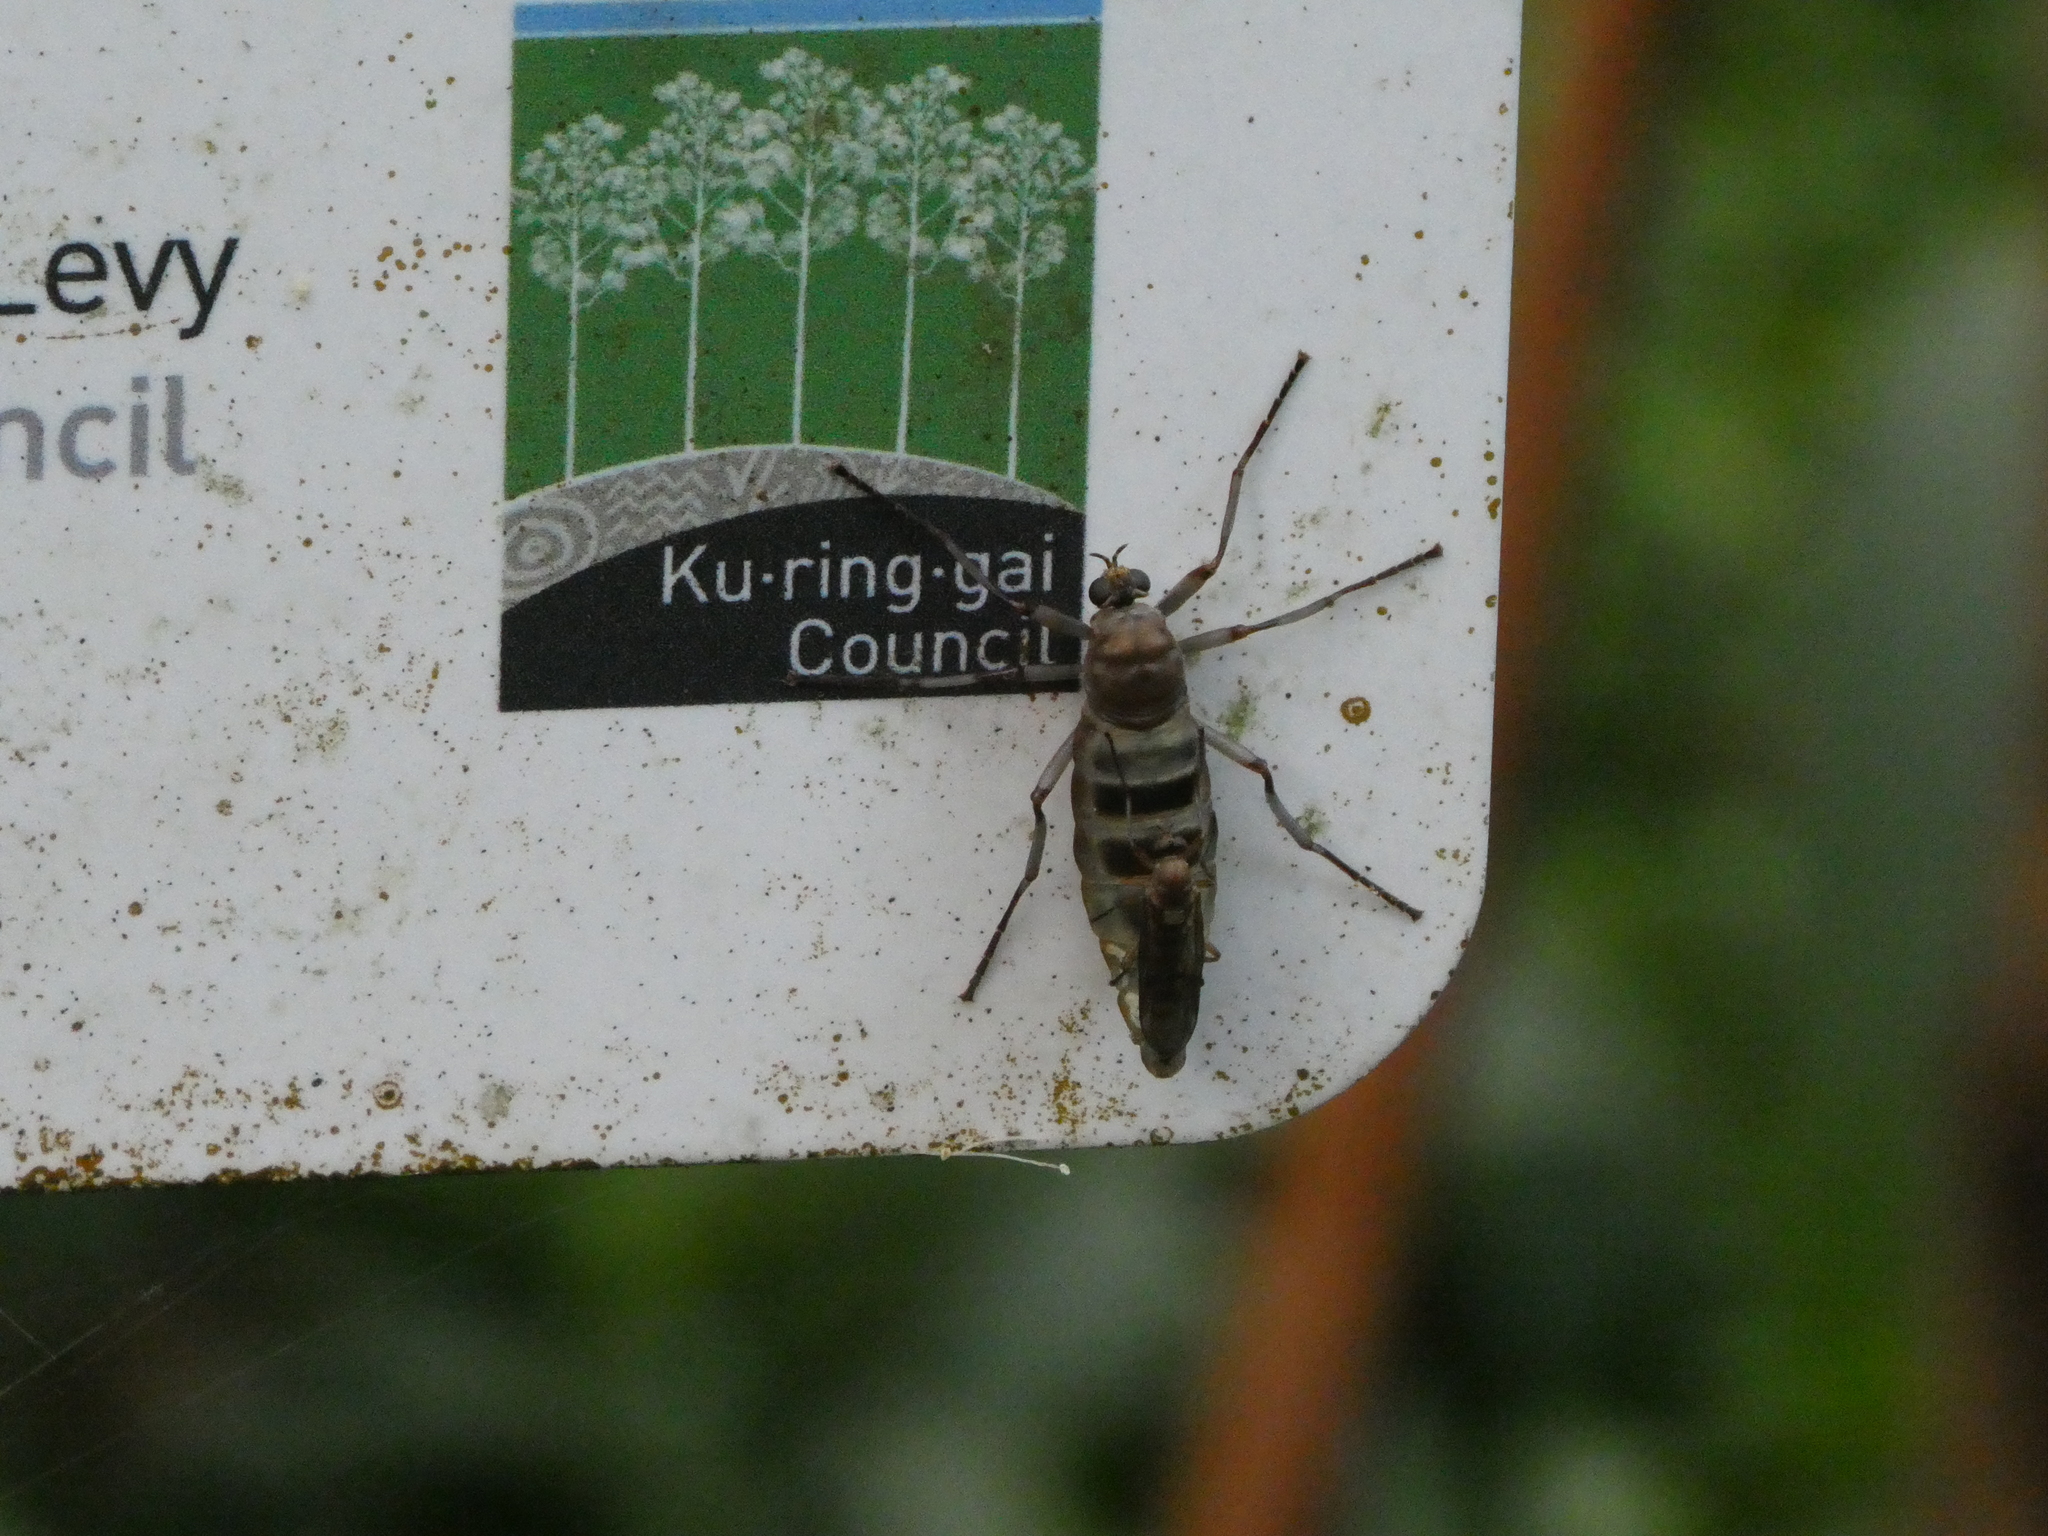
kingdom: Animalia
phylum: Arthropoda
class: Insecta
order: Diptera
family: Stratiomyidae
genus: Boreoides
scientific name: Boreoides subulatus
